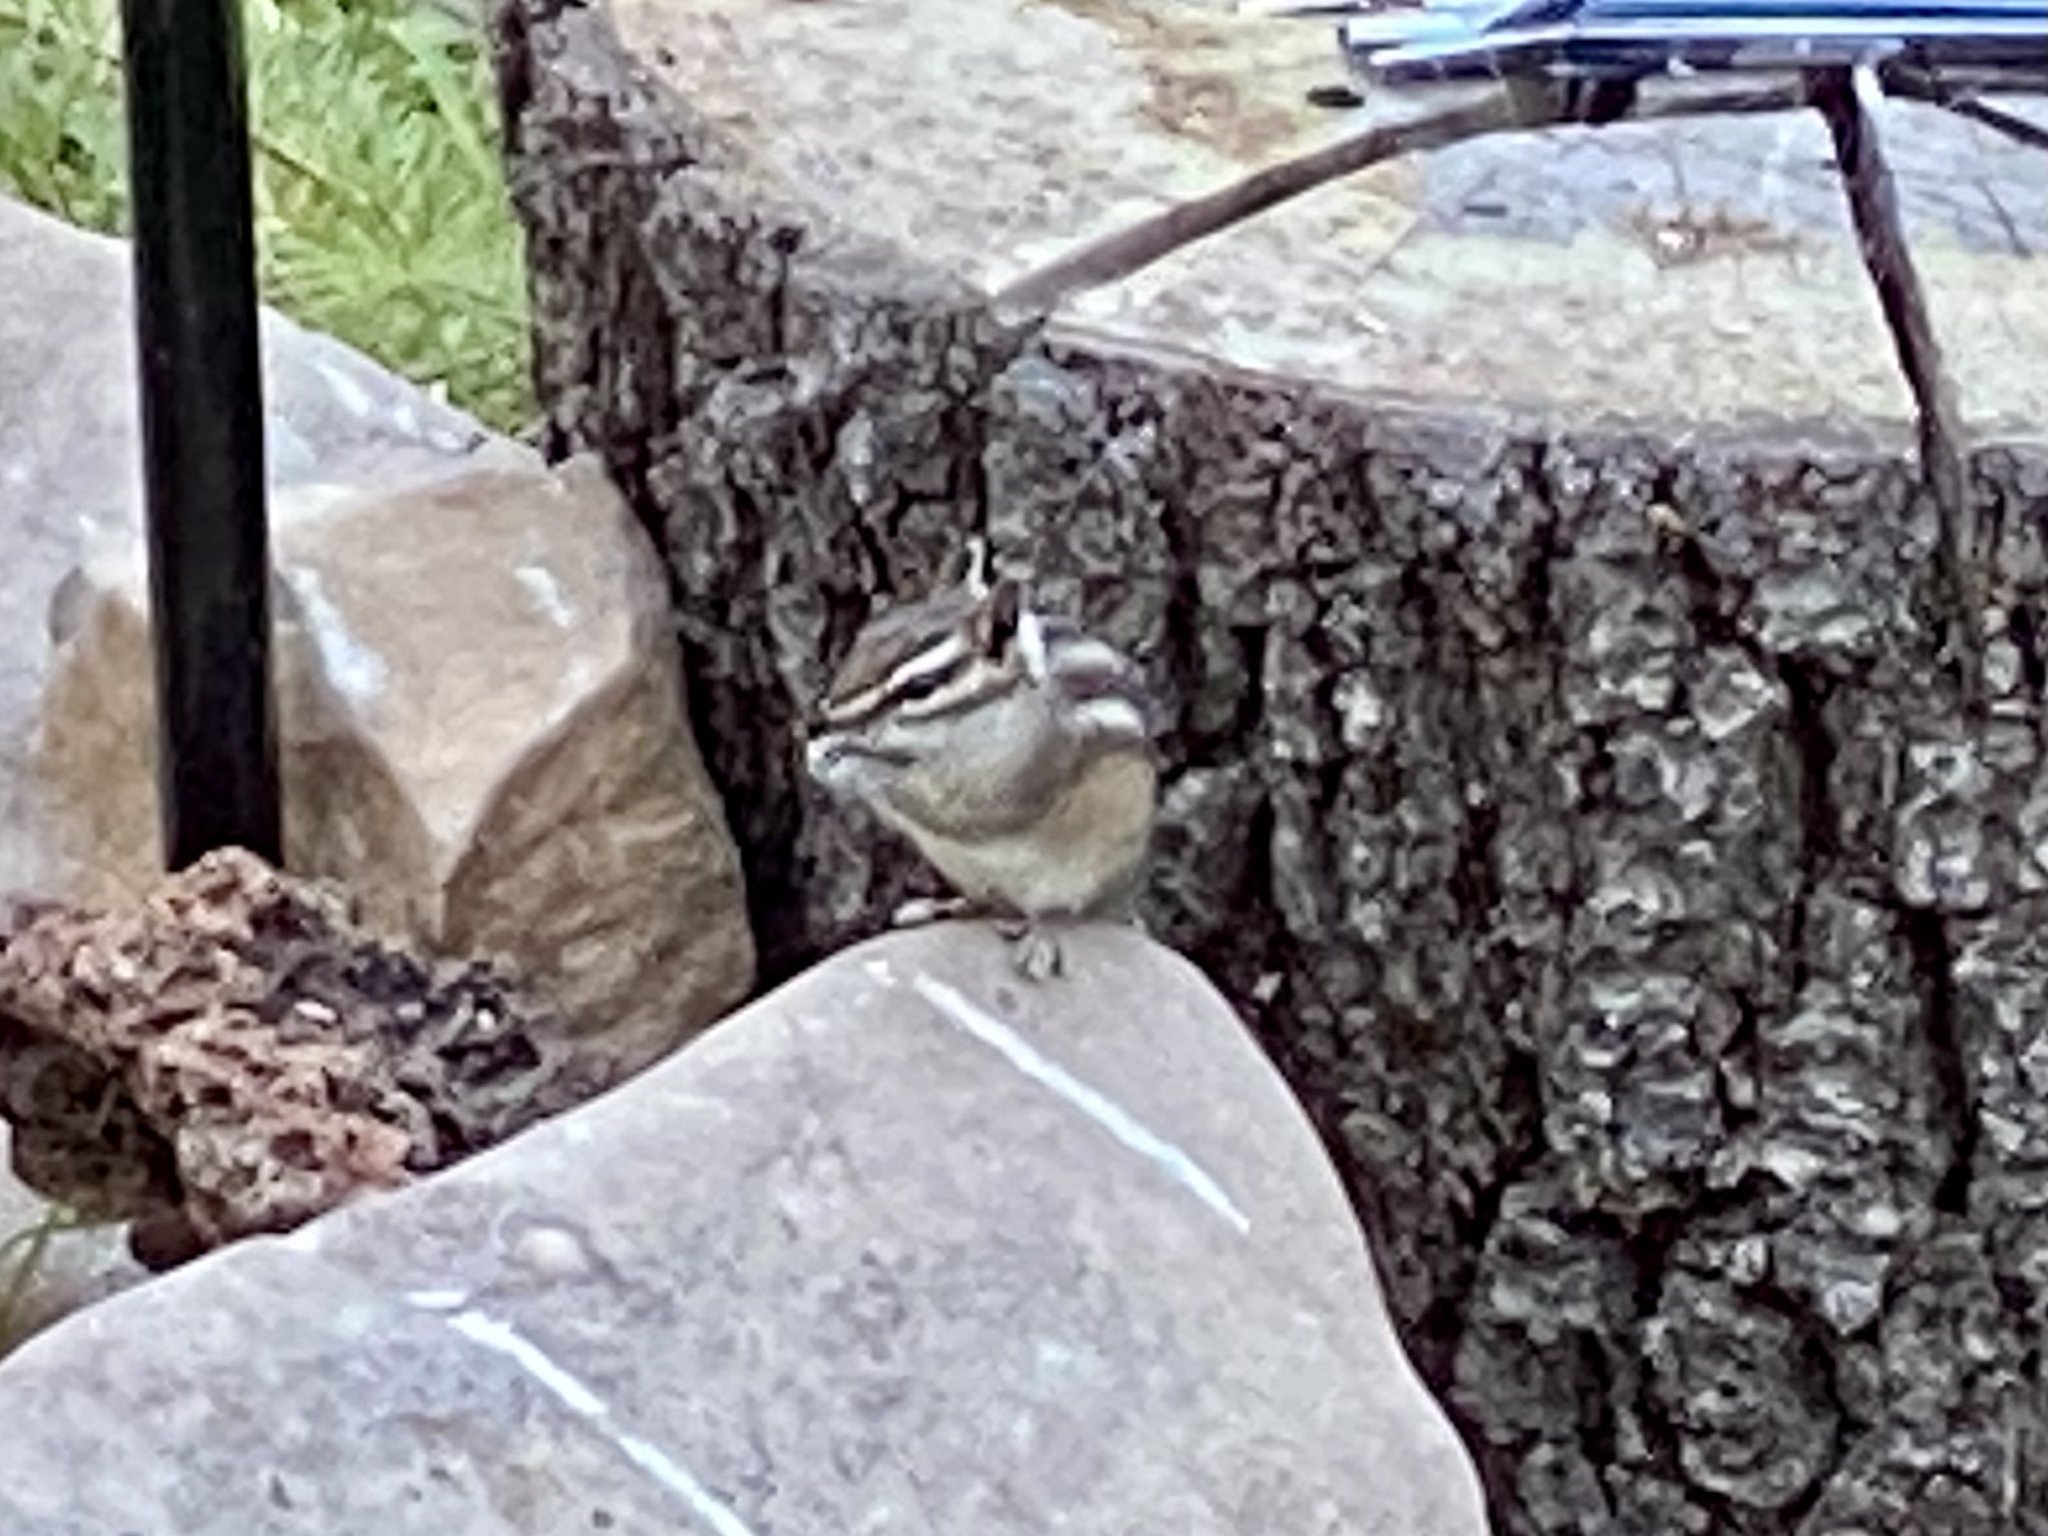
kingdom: Animalia
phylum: Chordata
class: Mammalia
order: Rodentia
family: Sciuridae
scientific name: Sciuridae
